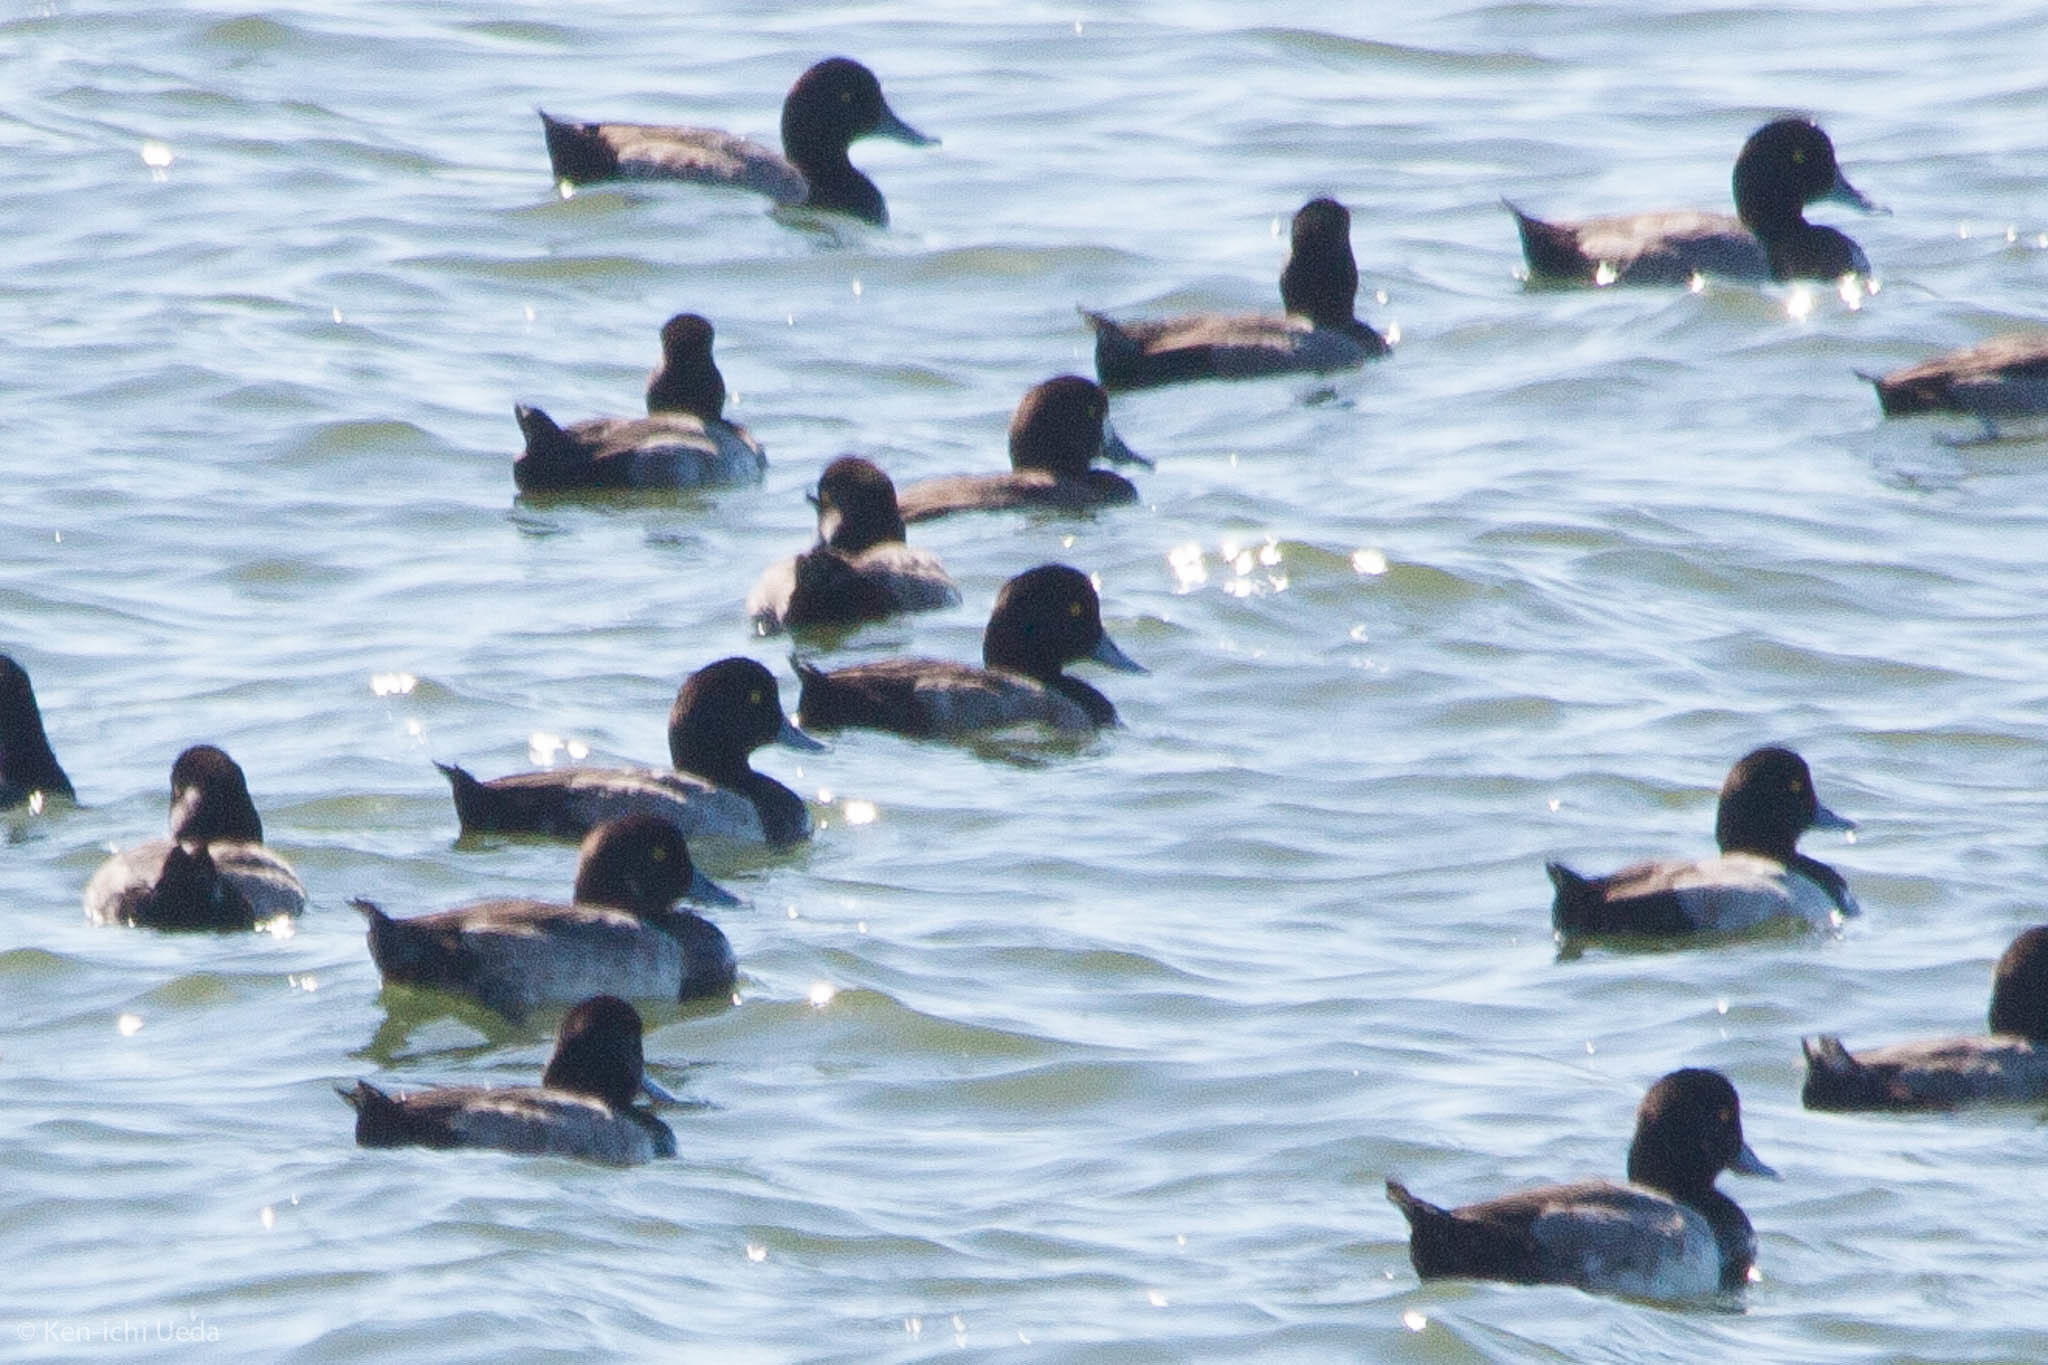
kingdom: Animalia
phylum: Chordata
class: Aves
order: Anseriformes
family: Anatidae
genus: Aythya
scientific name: Aythya marila
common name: Greater scaup
